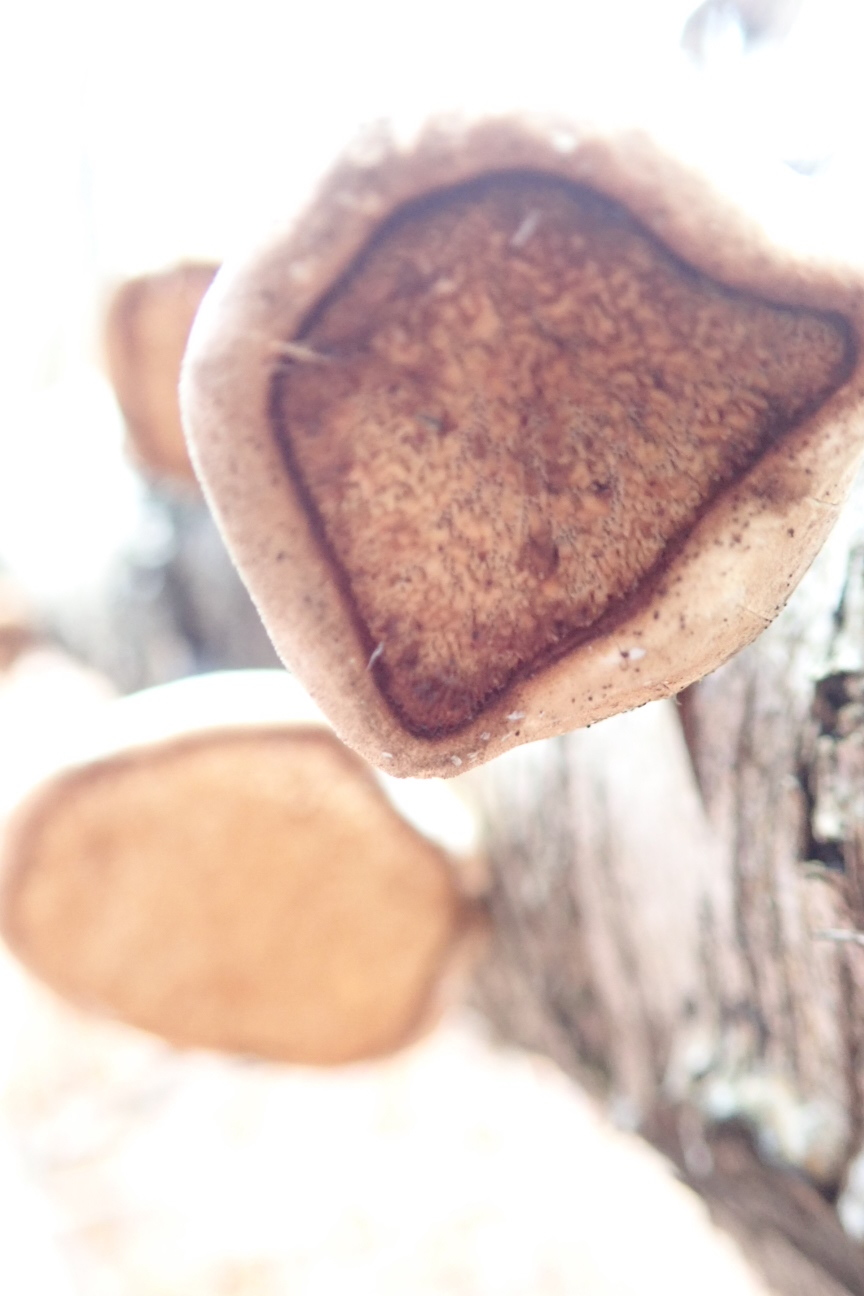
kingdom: Fungi
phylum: Basidiomycota
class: Agaricomycetes
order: Polyporales
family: Fomitopsidaceae
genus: Fomitopsis
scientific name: Fomitopsis betulina
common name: Birch polypore
